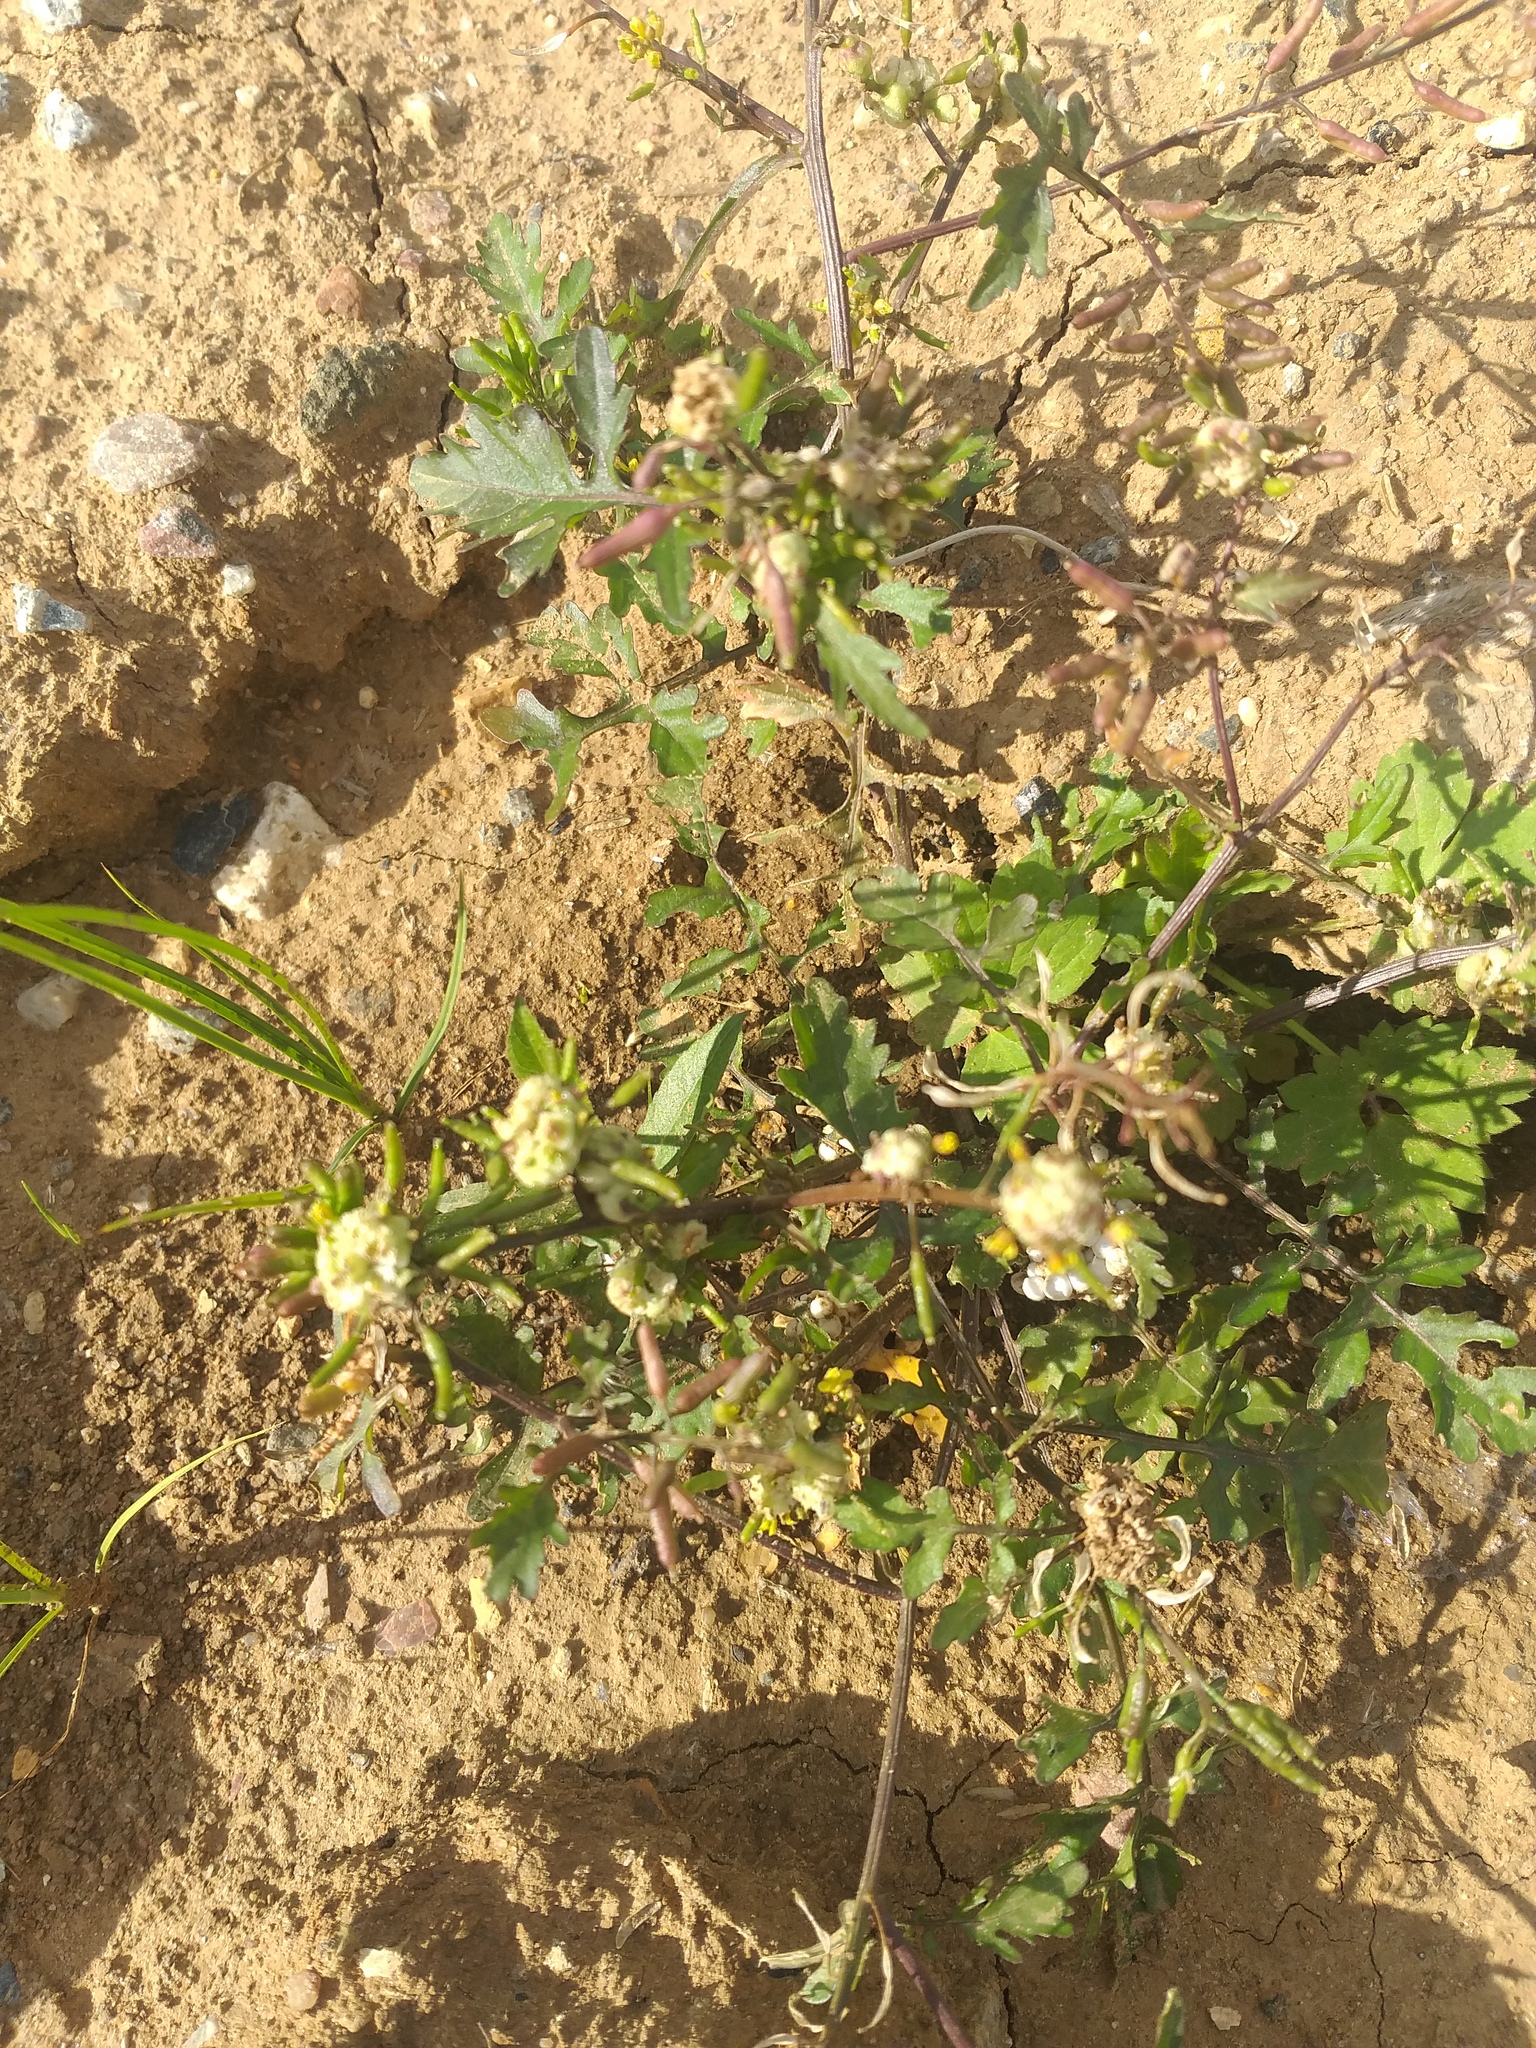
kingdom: Animalia
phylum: Arthropoda
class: Insecta
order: Diptera
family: Cecidomyiidae
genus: Dasineura
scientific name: Dasineura sisymbrii
